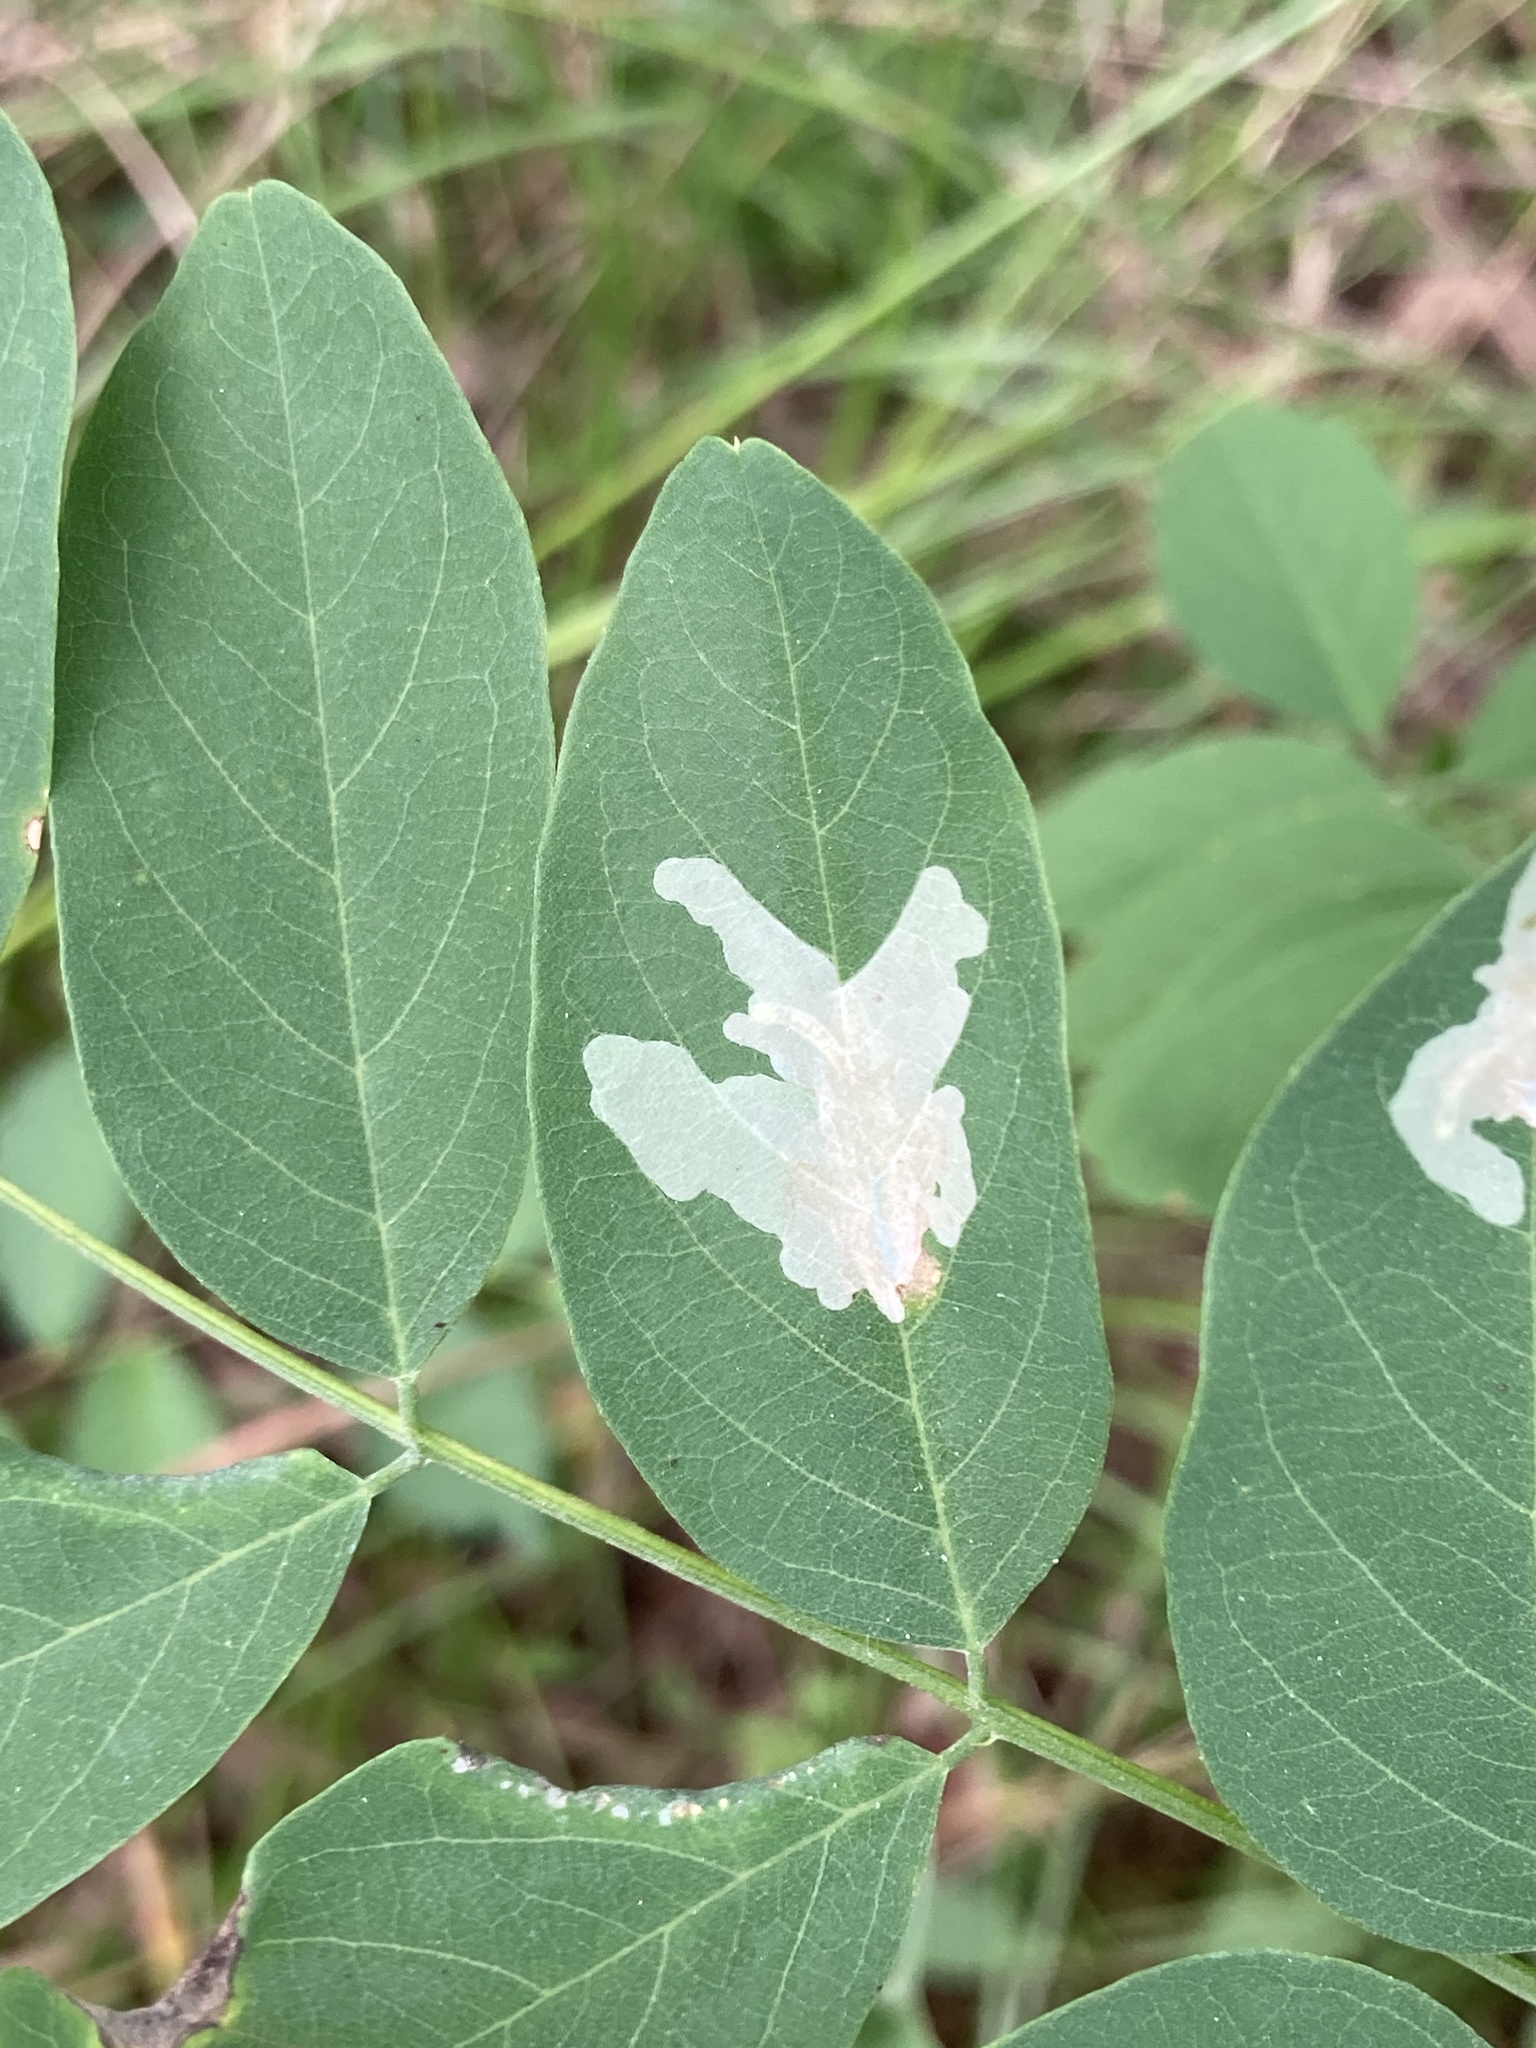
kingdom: Animalia
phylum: Arthropoda
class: Insecta
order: Lepidoptera
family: Gracillariidae
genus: Parectopa
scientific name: Parectopa robiniella
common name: Locust digitate leafminer
